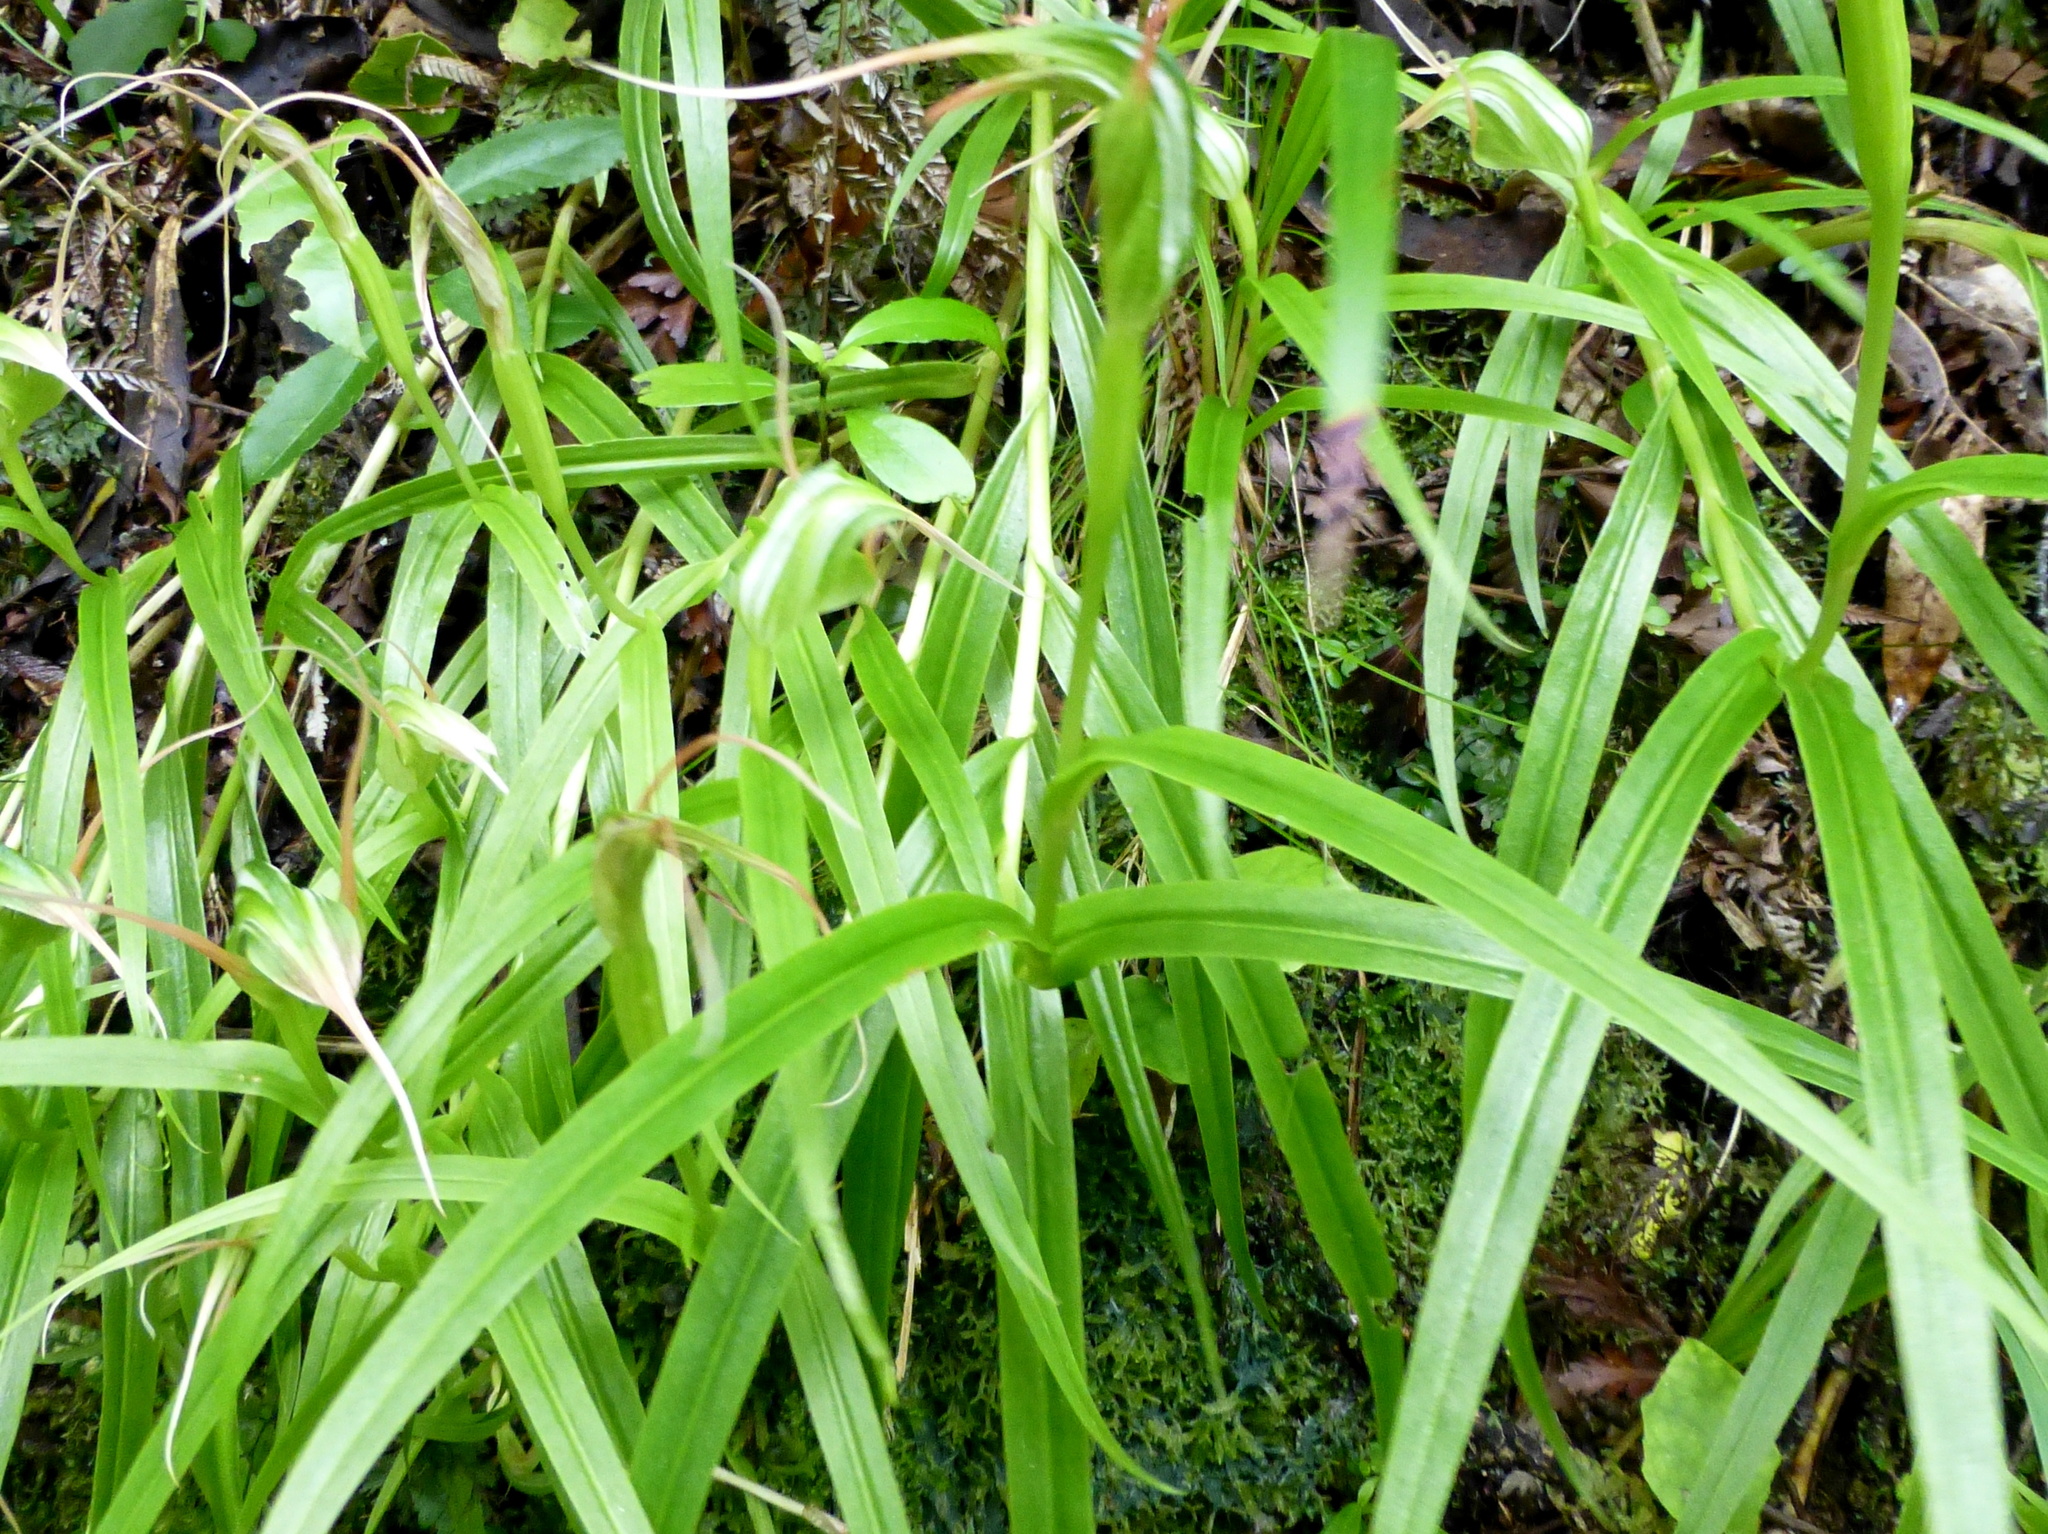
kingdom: Plantae
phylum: Tracheophyta
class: Liliopsida
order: Asparagales
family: Orchidaceae
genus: Pterostylis
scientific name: Pterostylis banksii
